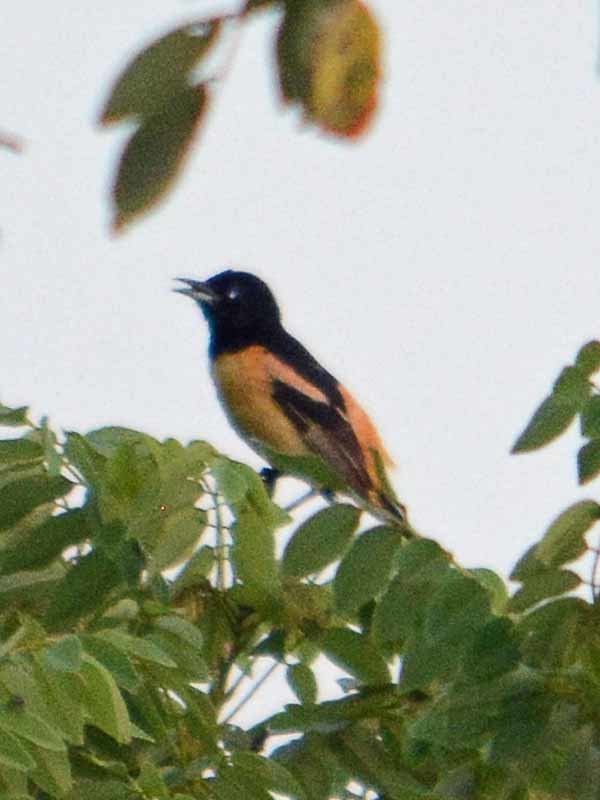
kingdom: Animalia
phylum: Chordata
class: Aves
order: Passeriformes
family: Icteridae
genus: Icterus
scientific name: Icterus spurius
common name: Orchard oriole
